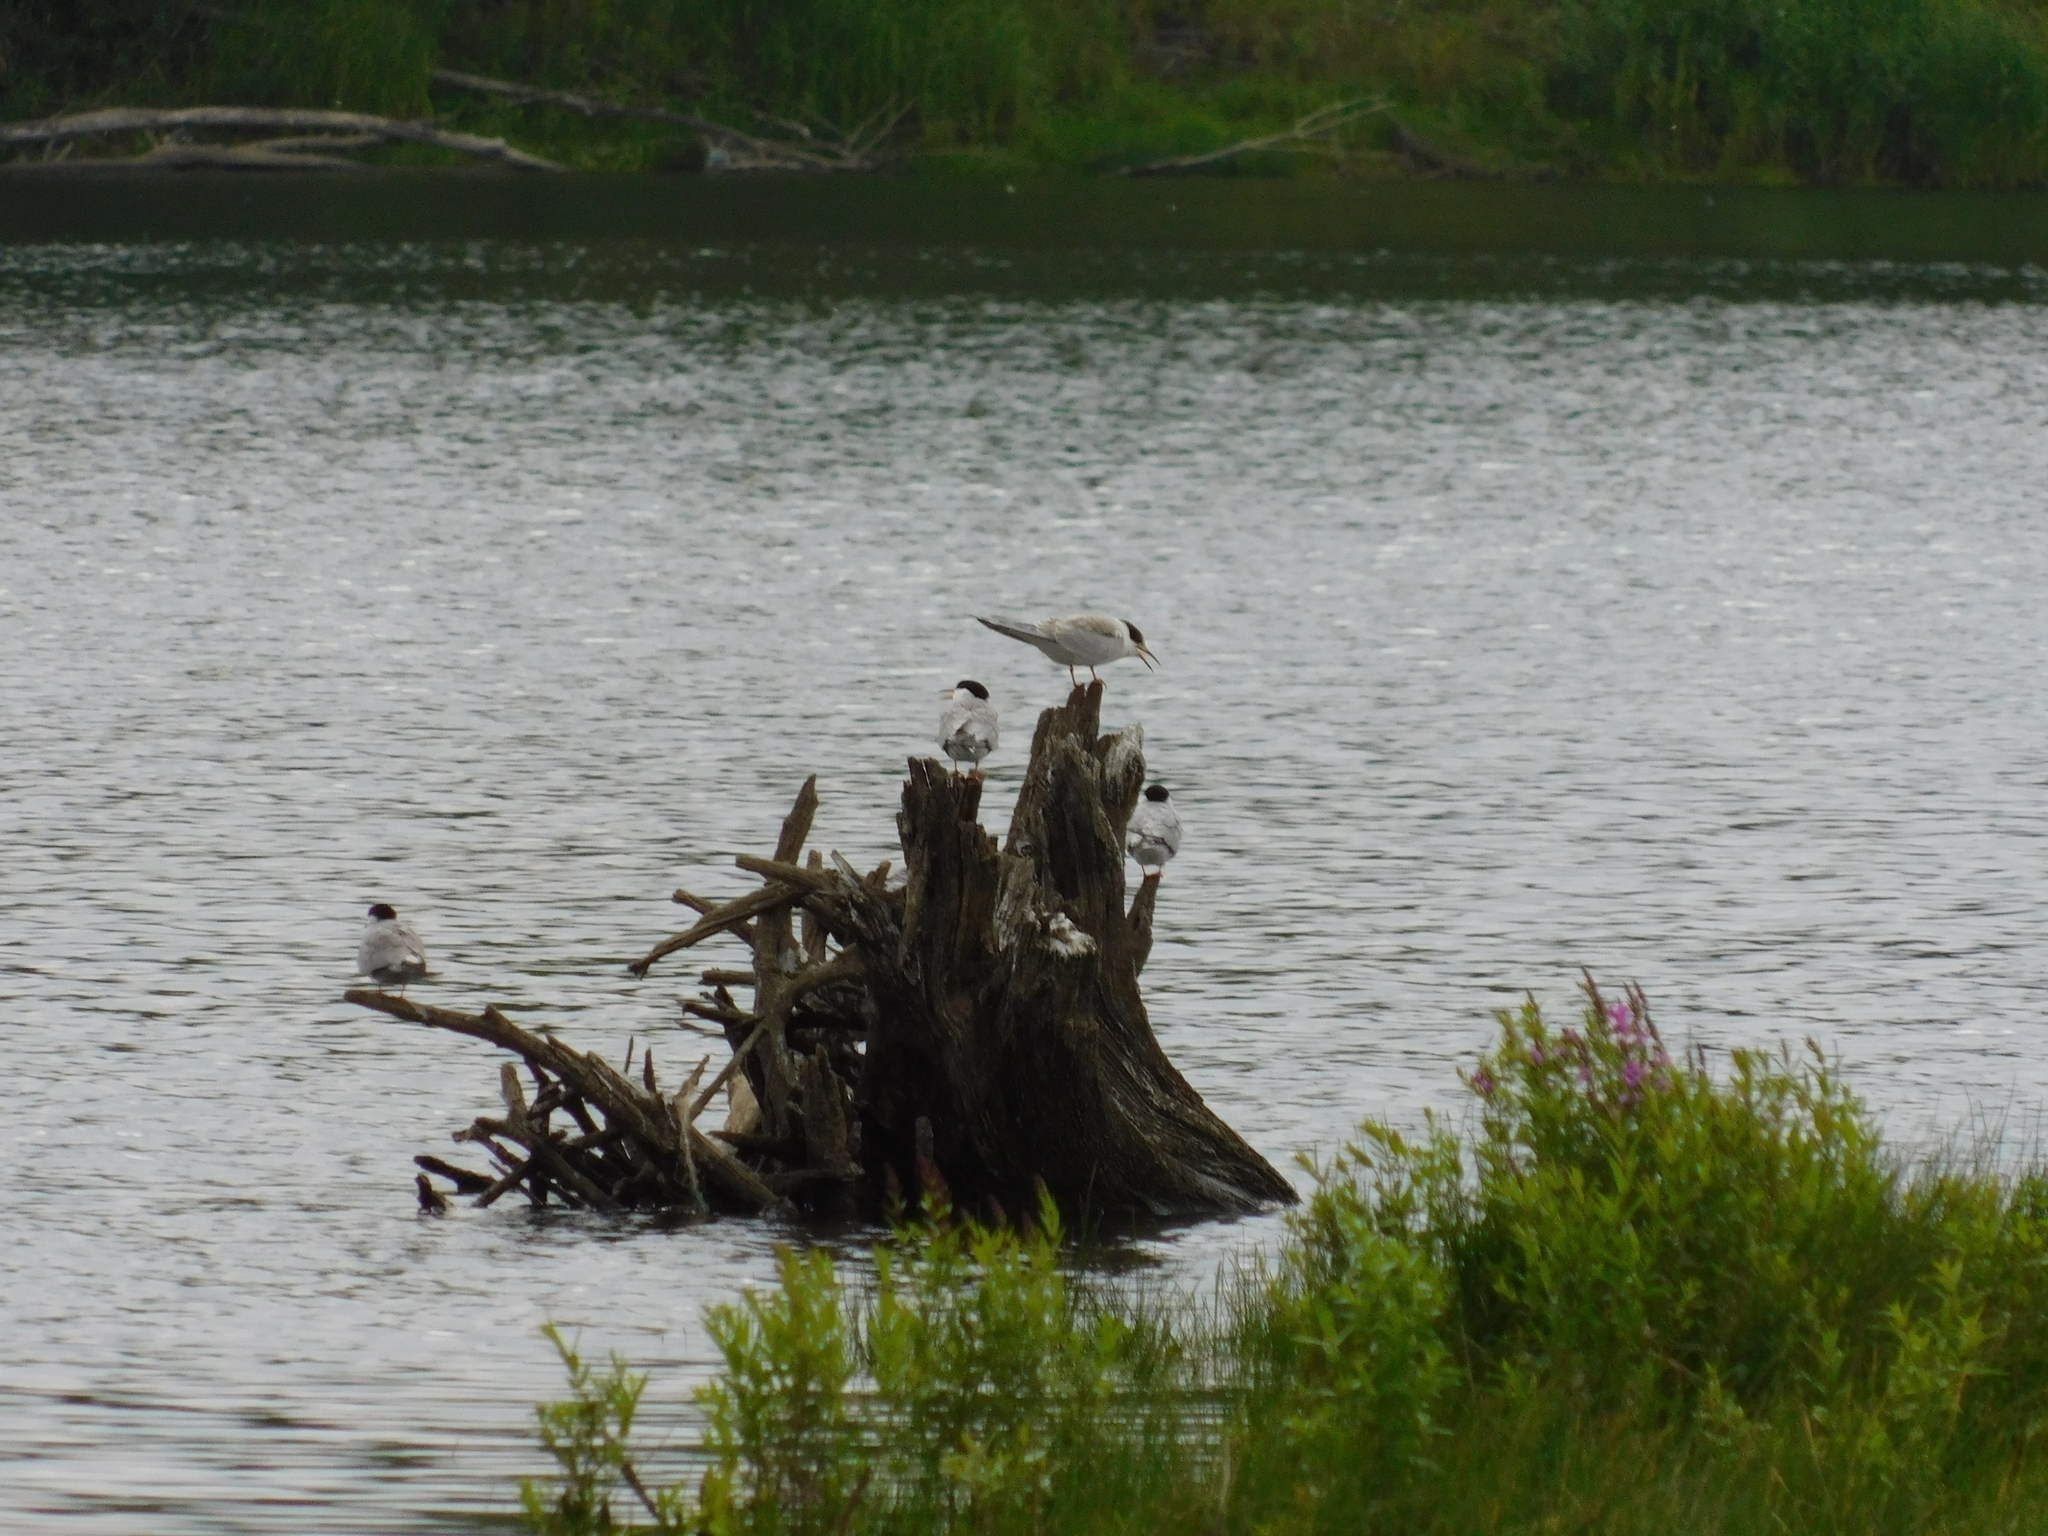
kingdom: Animalia
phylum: Chordata
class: Aves
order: Charadriiformes
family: Laridae
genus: Sterna
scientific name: Sterna hirundo
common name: Common tern
